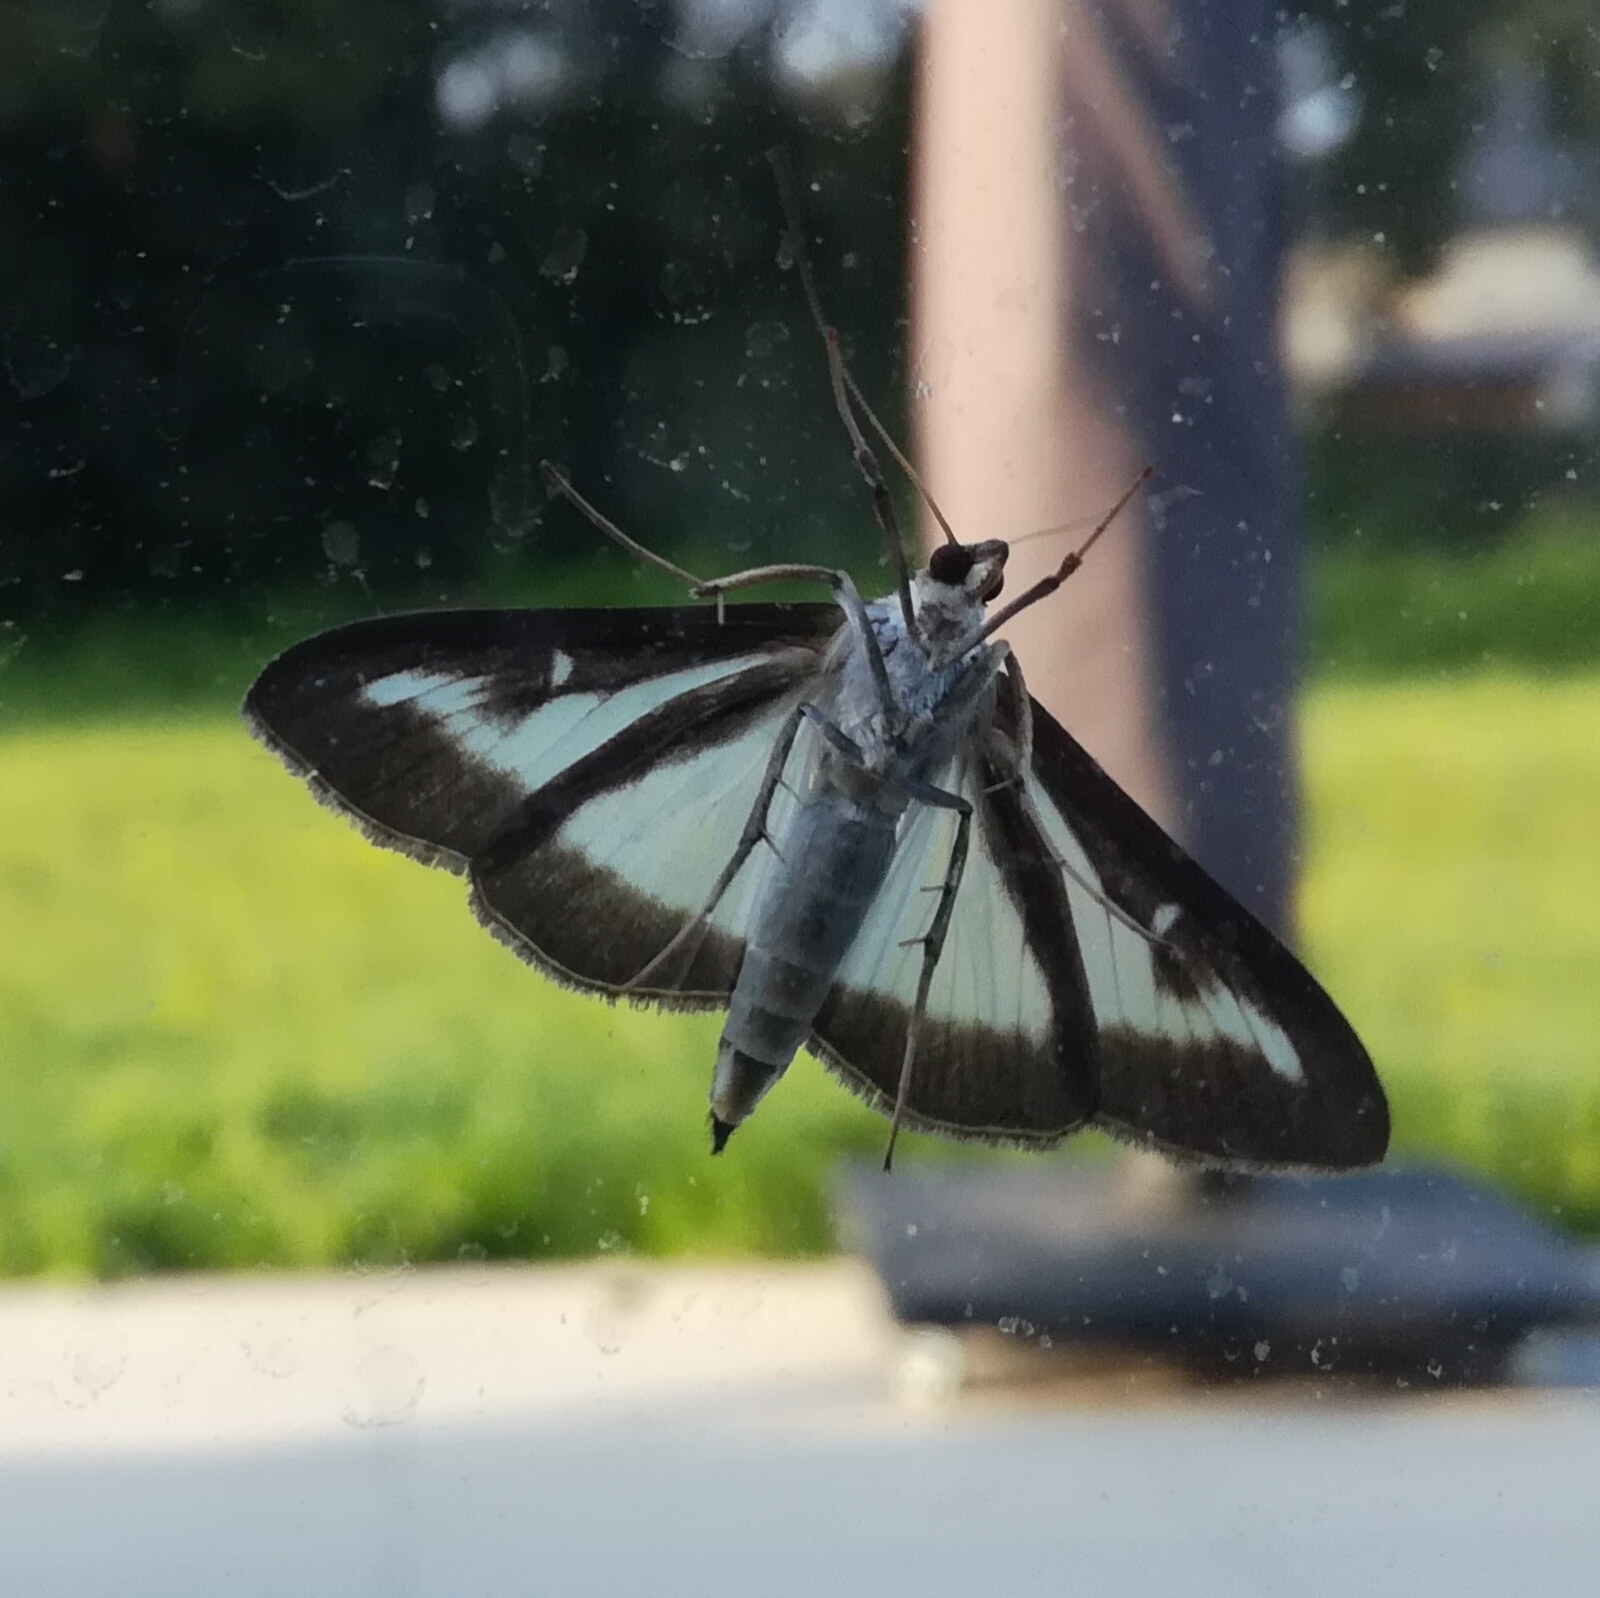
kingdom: Animalia
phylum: Arthropoda
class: Insecta
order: Lepidoptera
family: Crambidae
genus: Cydalima
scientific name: Cydalima perspectalis
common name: Box tree moth
